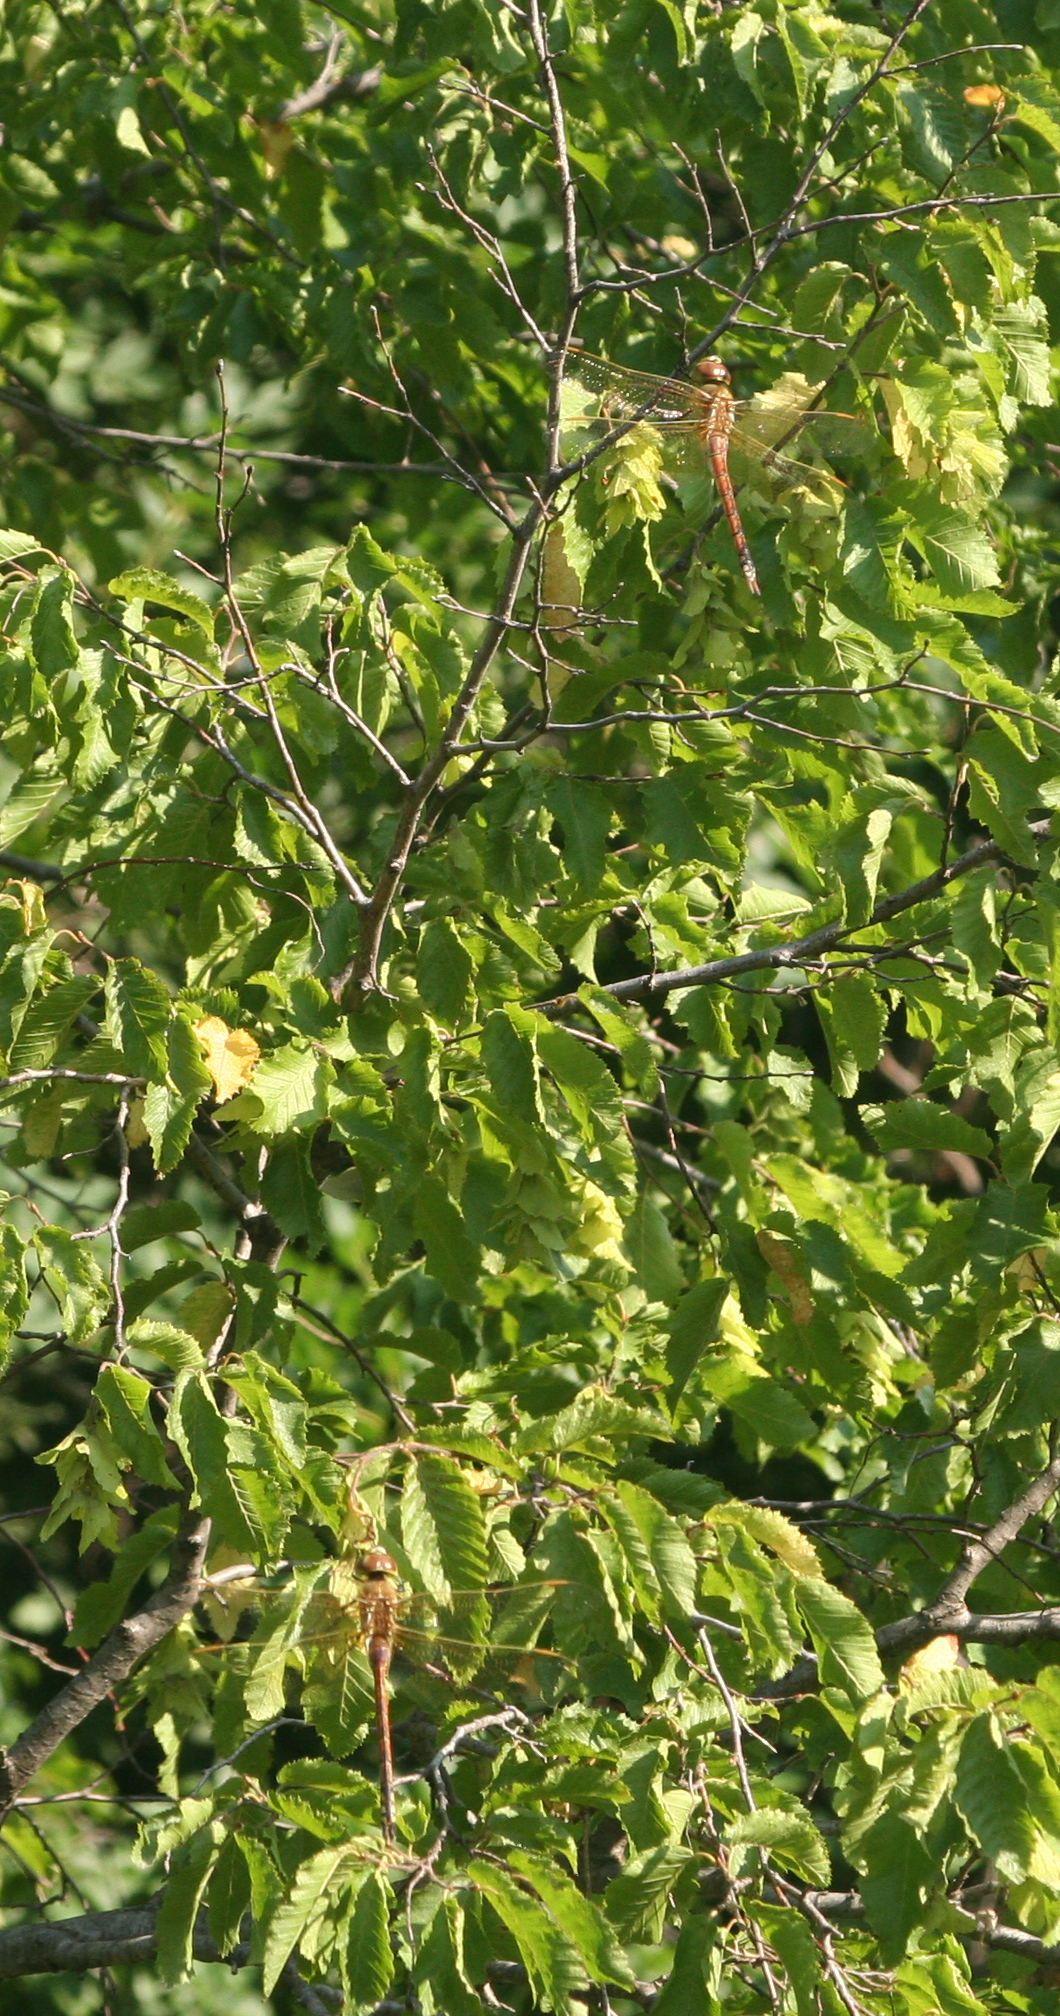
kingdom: Plantae
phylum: Tracheophyta
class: Magnoliopsida
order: Fagales
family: Betulaceae
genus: Carpinus
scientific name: Carpinus orientalis
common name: Eastern hornbeam
